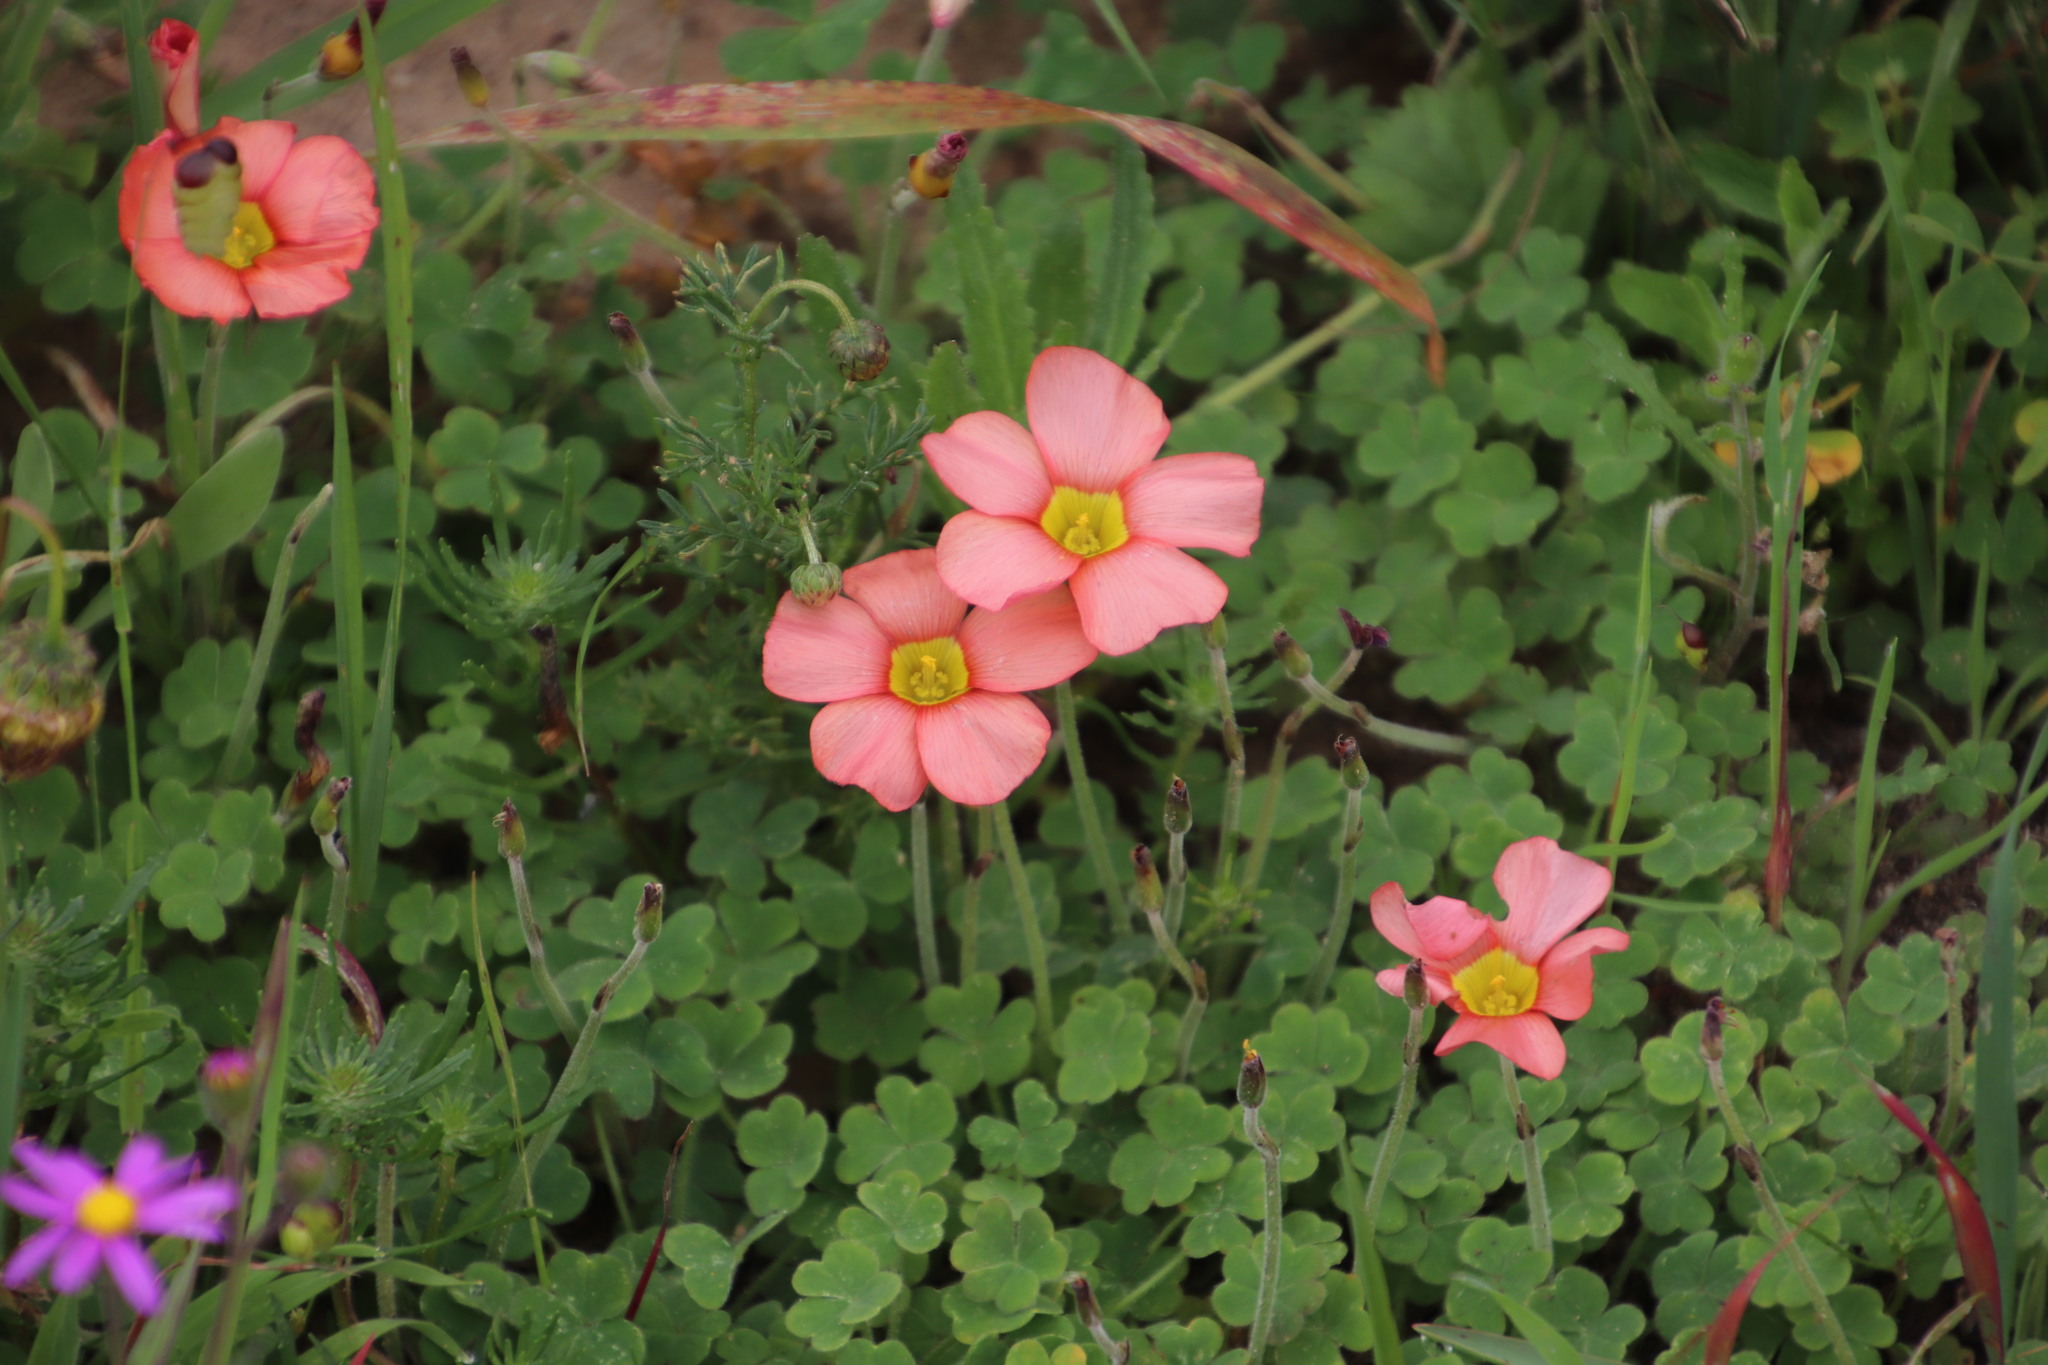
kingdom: Plantae
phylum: Tracheophyta
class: Magnoliopsida
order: Oxalidales
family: Oxalidaceae
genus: Oxalis
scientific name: Oxalis obtusa
